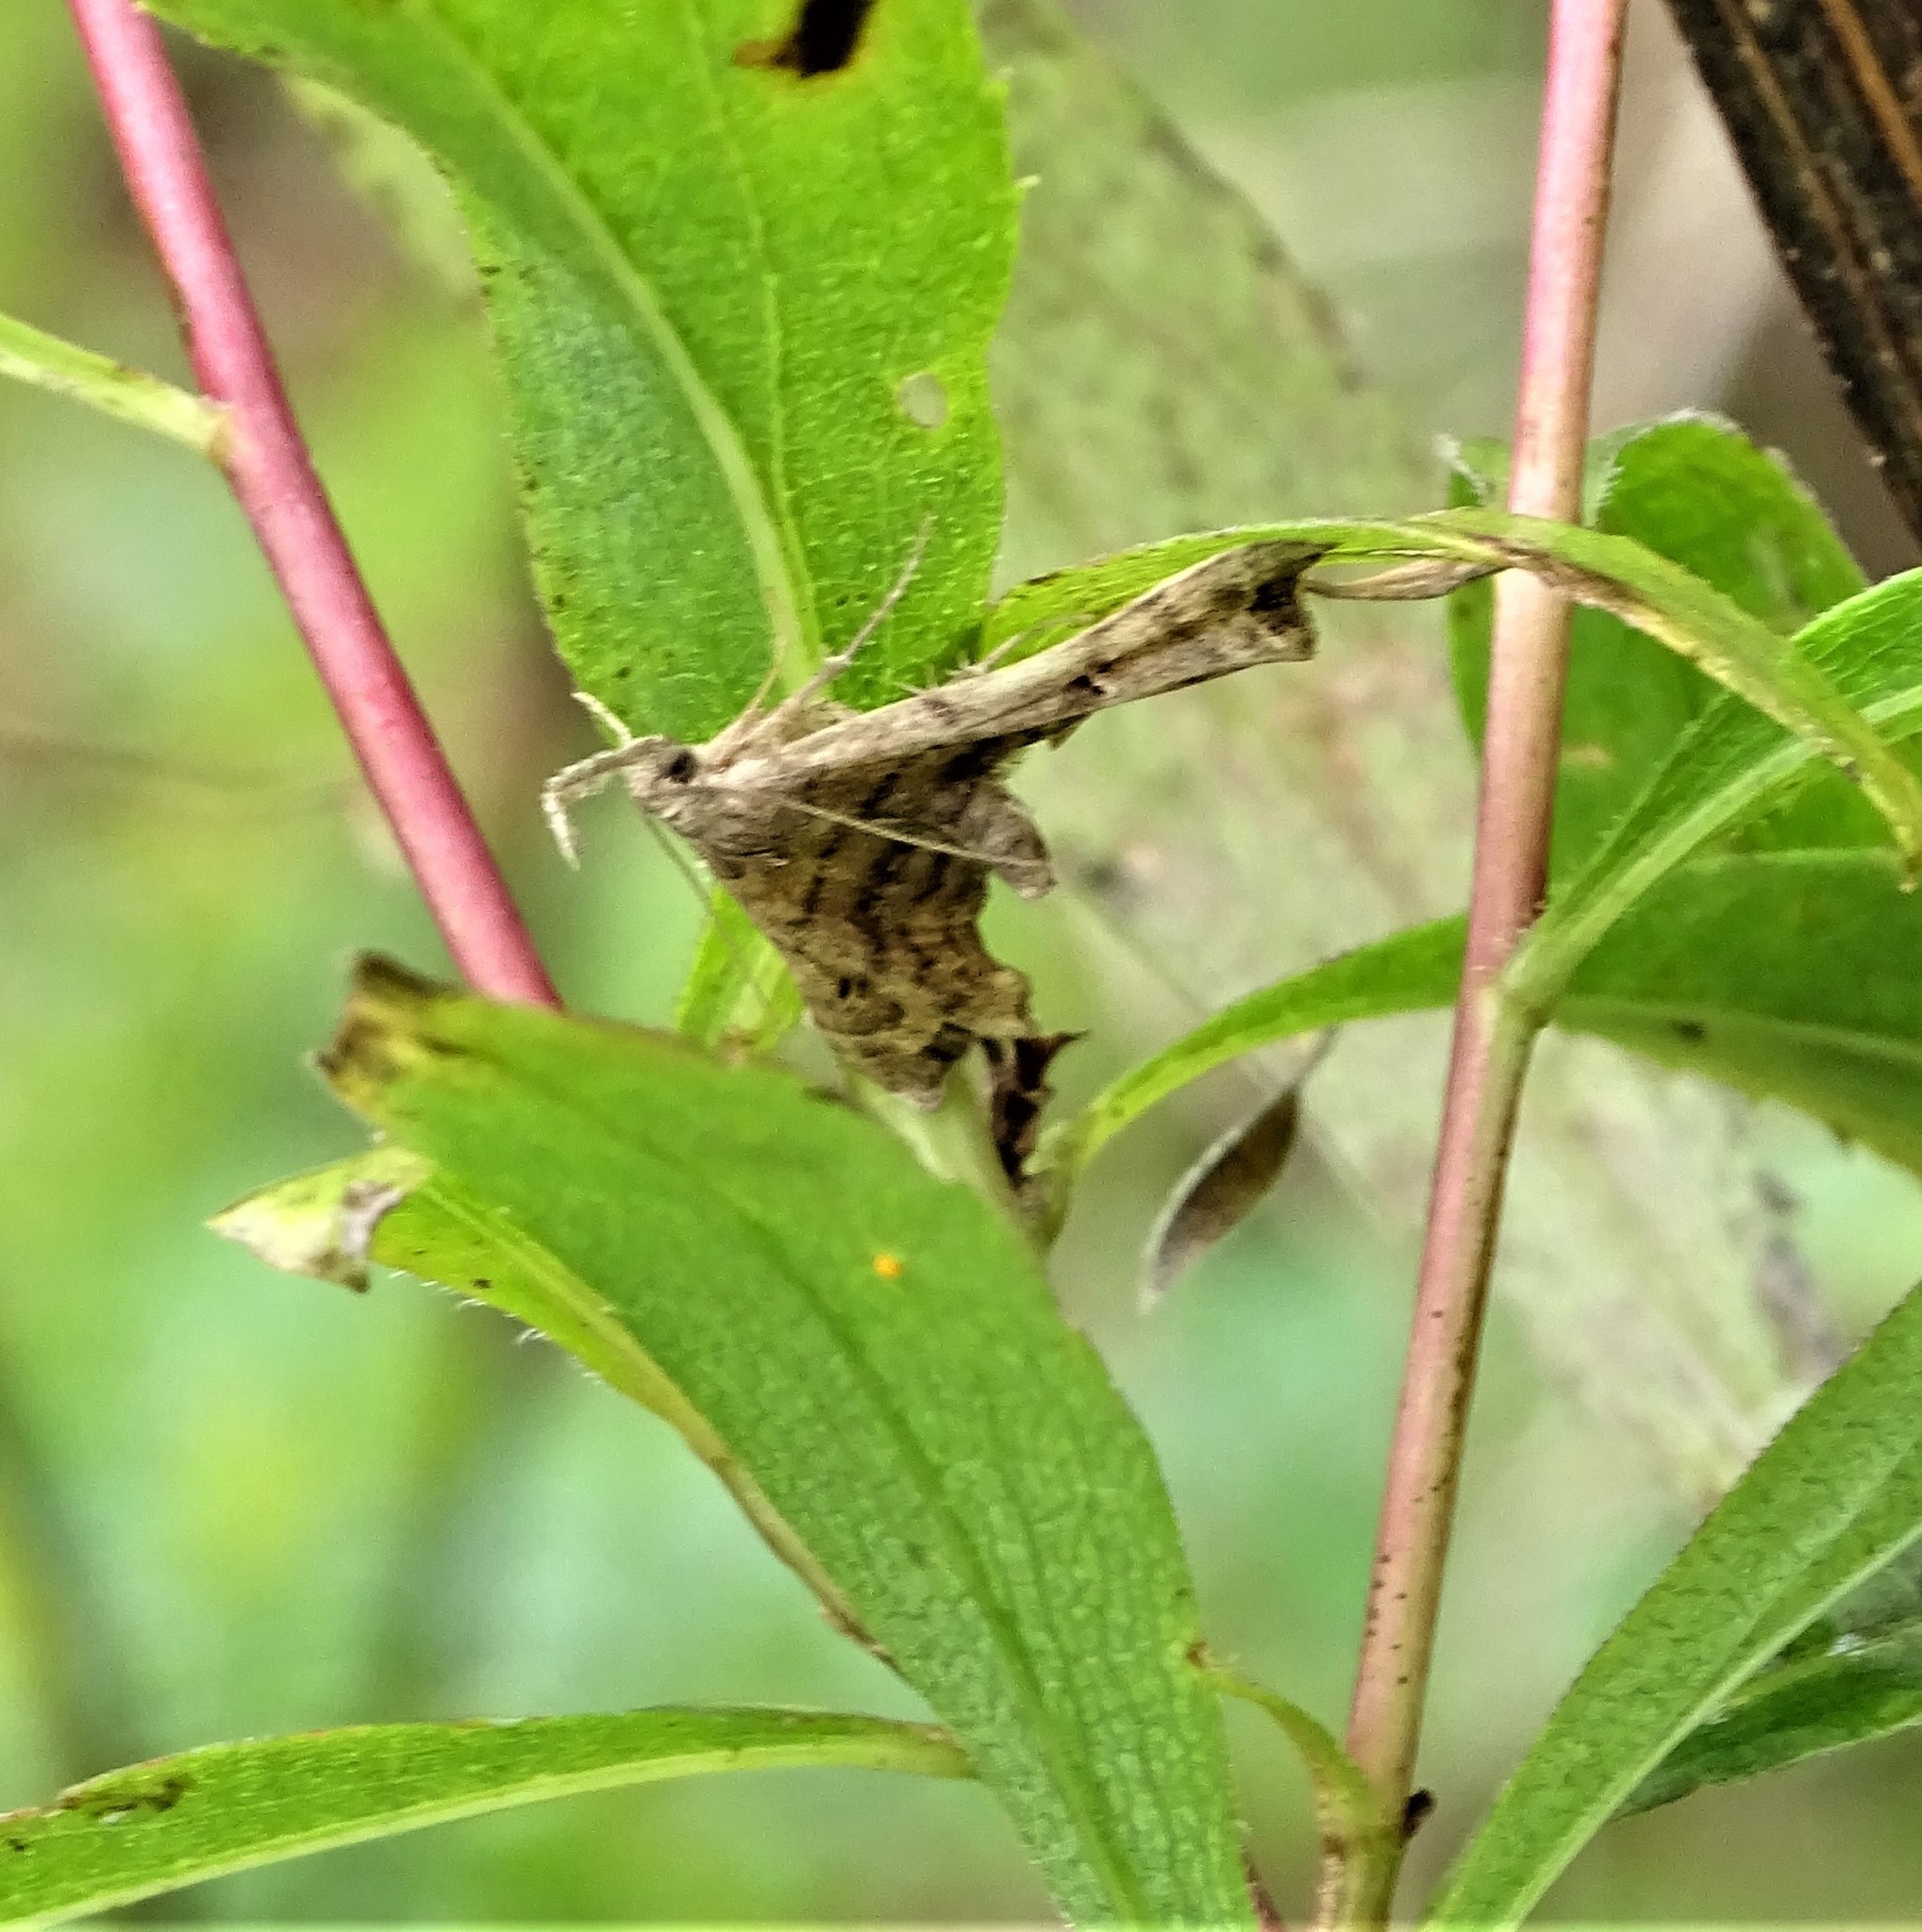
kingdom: Animalia
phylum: Arthropoda
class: Insecta
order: Lepidoptera
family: Erebidae
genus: Palthis
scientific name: Palthis asopialis
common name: Faint-spotted palthis moth
